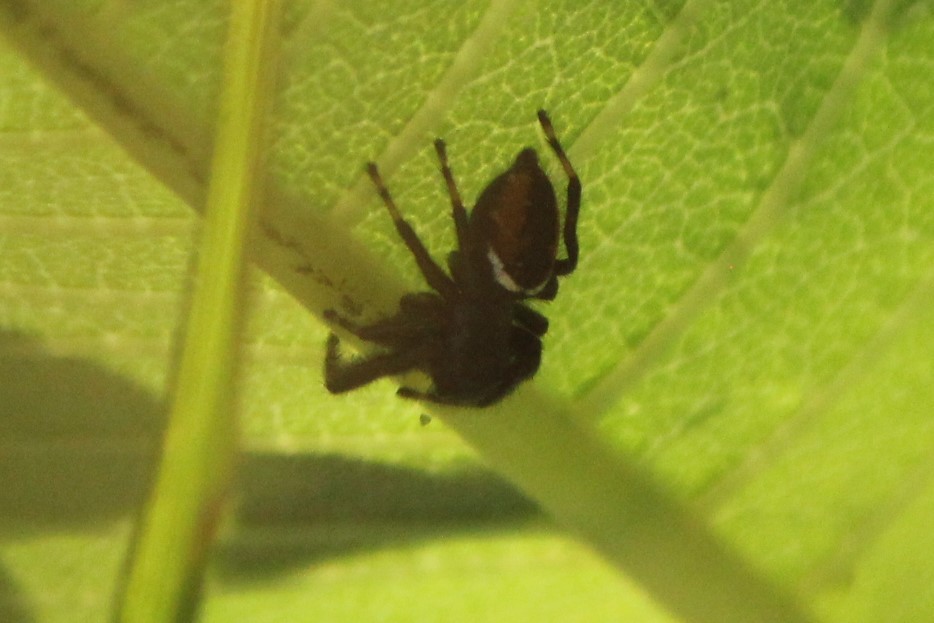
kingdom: Animalia
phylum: Arthropoda
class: Arachnida
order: Araneae
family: Salticidae
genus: Phidippus
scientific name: Phidippus clarus
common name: Brilliant jumping spider
